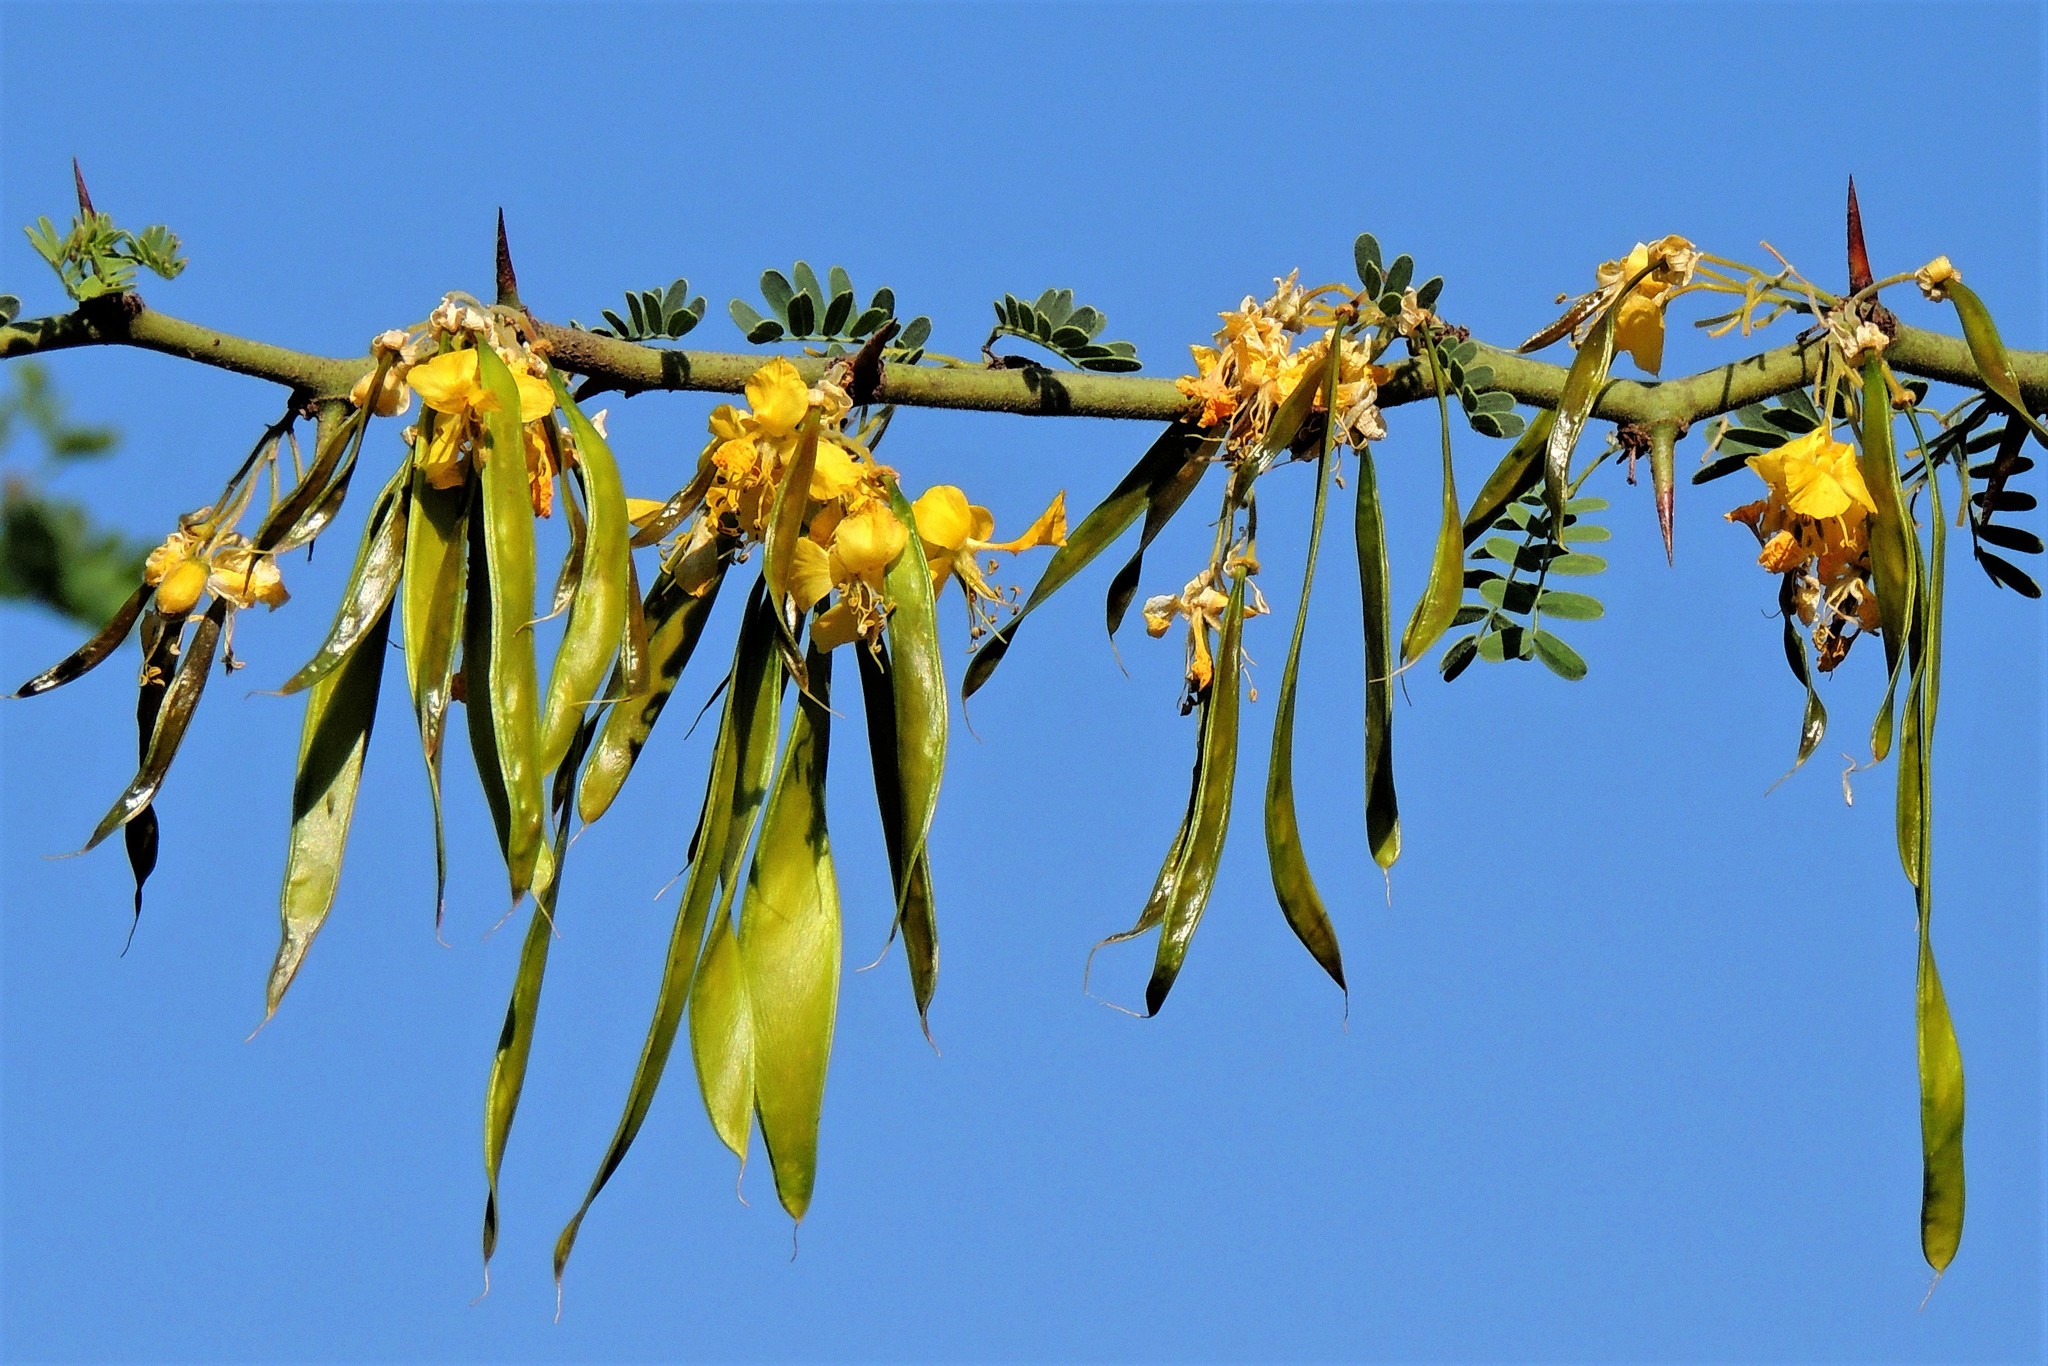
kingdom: Plantae
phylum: Tracheophyta
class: Magnoliopsida
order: Fabales
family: Fabaceae
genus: Parkinsonia
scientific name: Parkinsonia praecox
